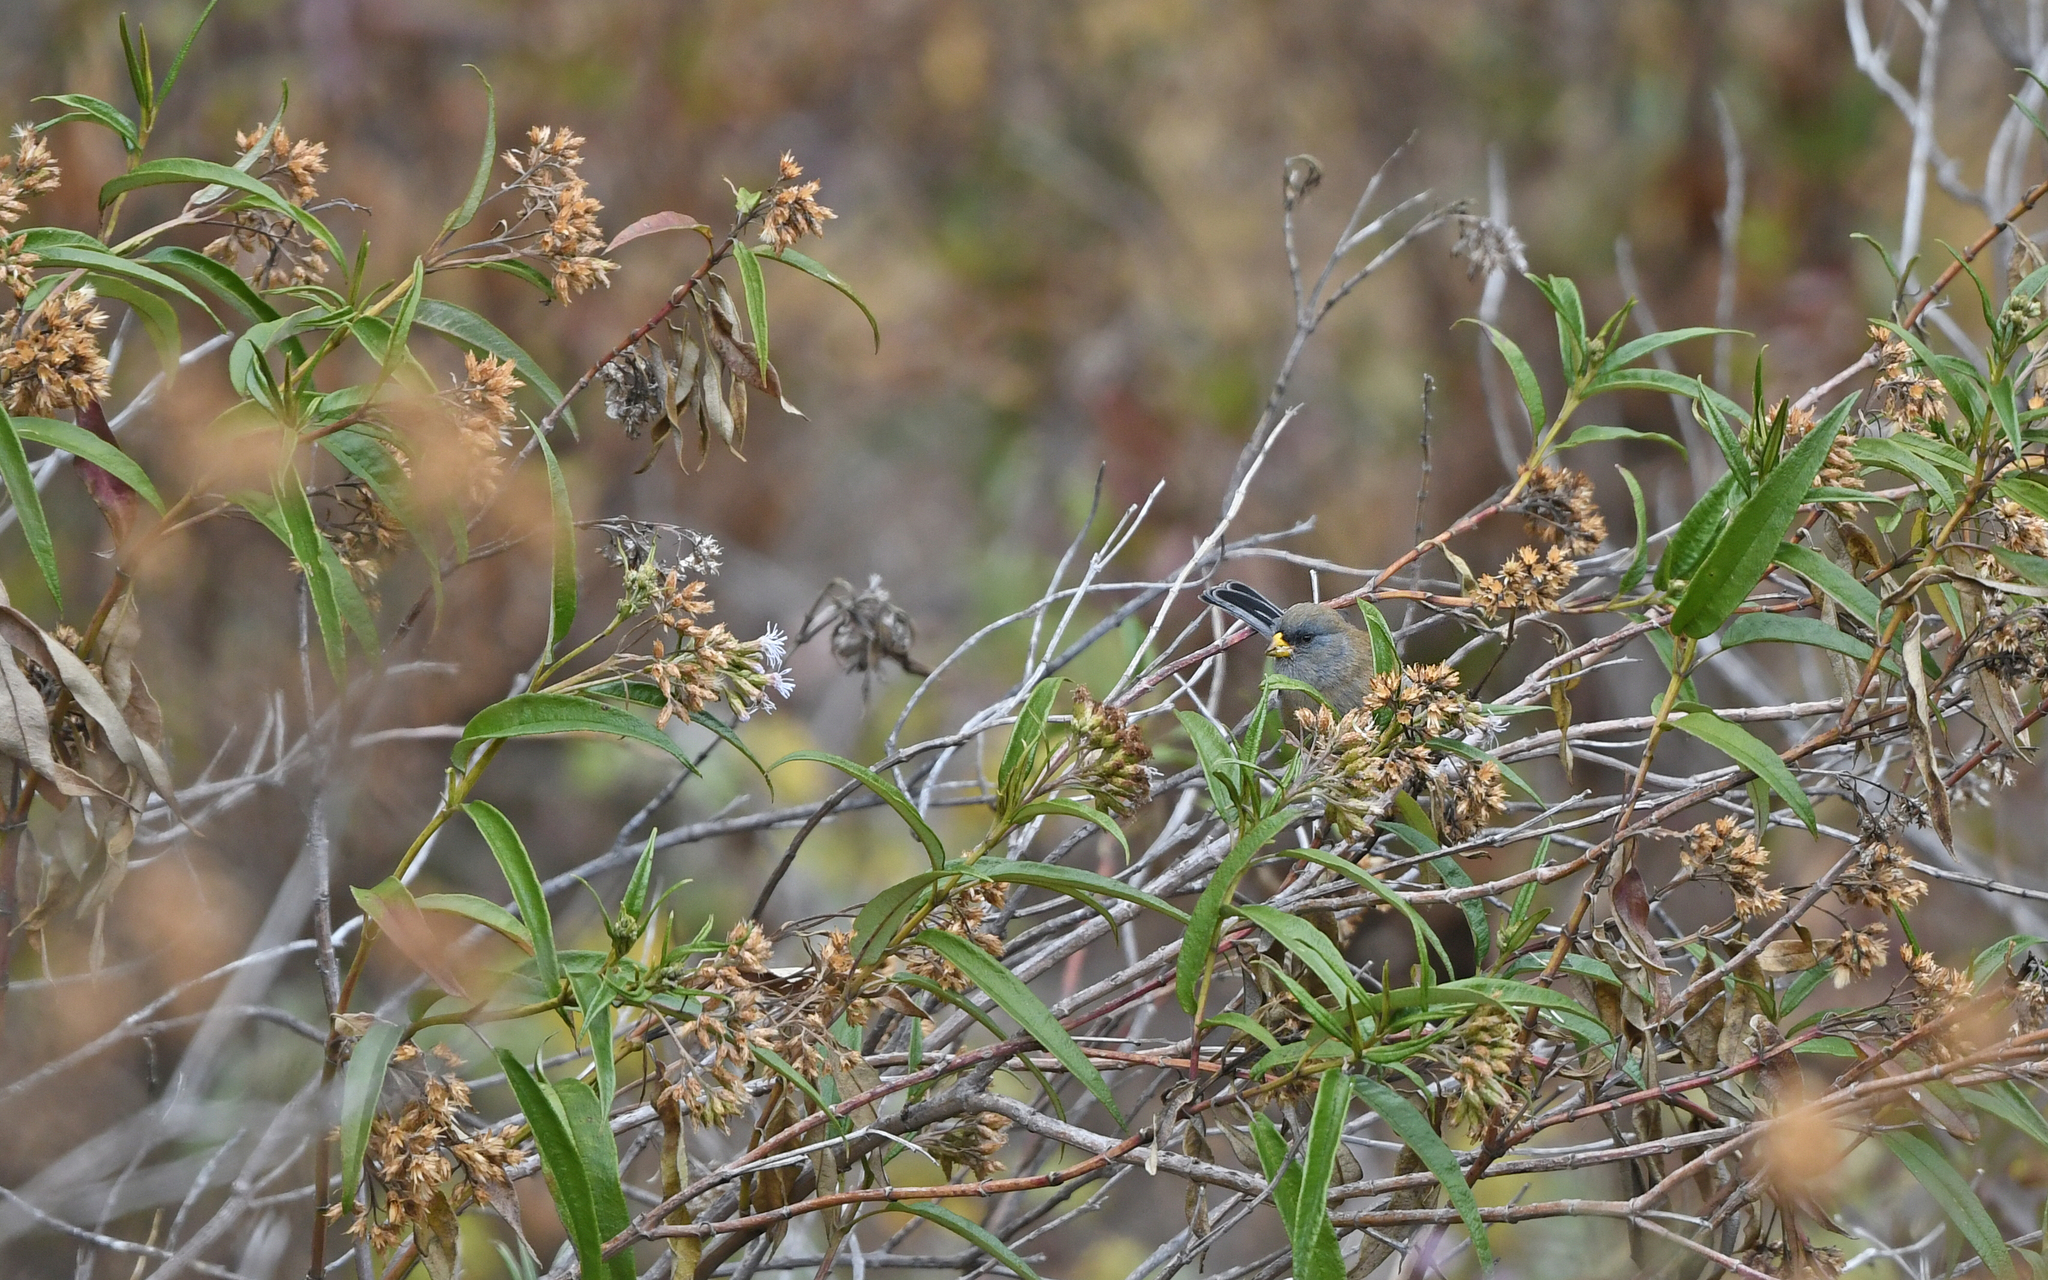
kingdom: Animalia
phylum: Chordata
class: Aves
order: Passeriformes
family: Thraupidae
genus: Catamenia
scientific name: Catamenia analis
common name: Band-tailed seedeater
